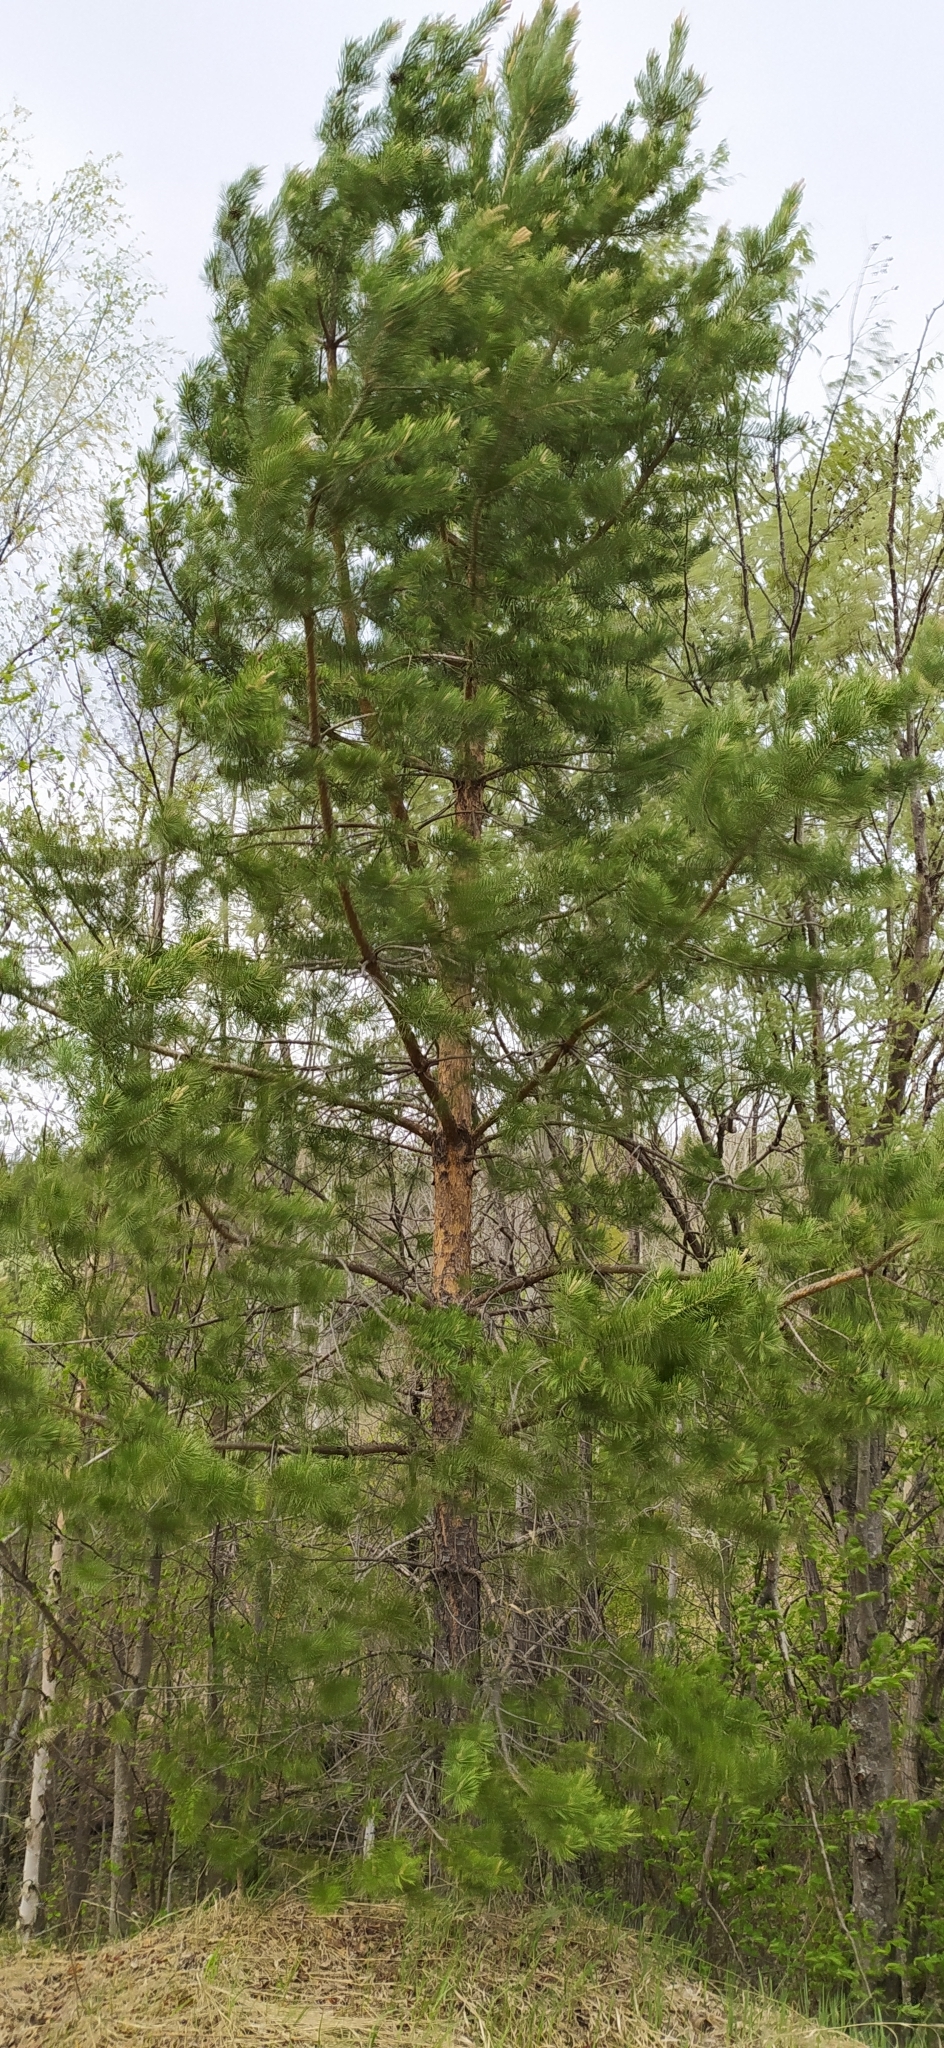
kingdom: Plantae
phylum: Tracheophyta
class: Pinopsida
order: Pinales
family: Pinaceae
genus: Pinus
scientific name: Pinus sylvestris
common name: Scots pine
